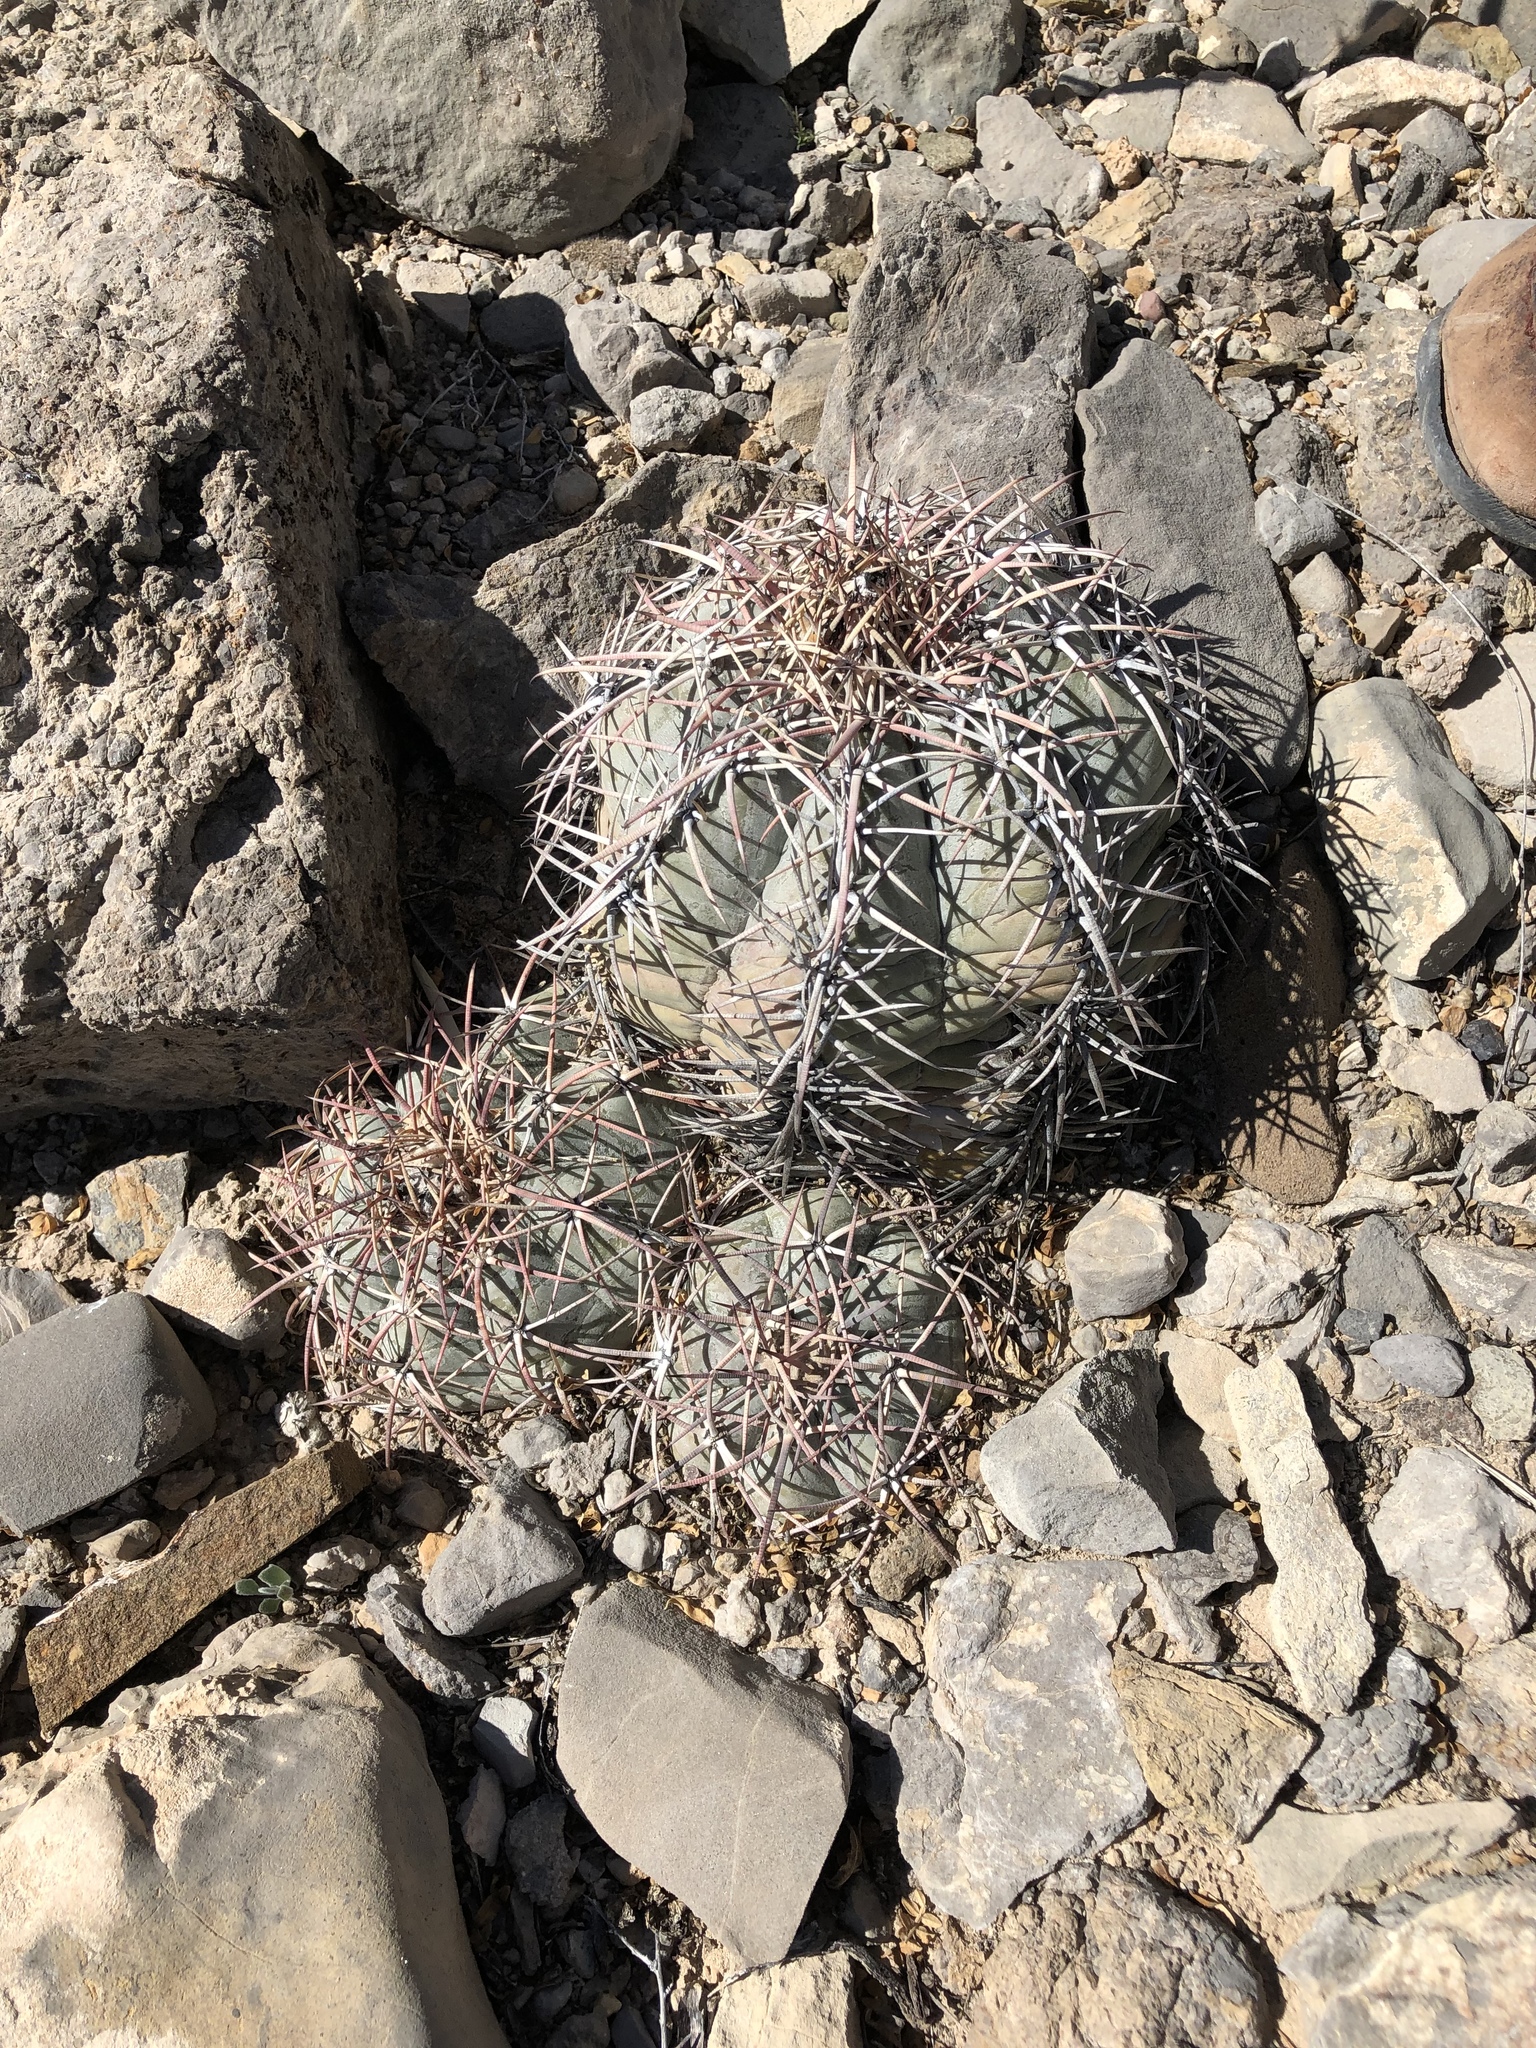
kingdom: Plantae
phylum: Tracheophyta
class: Magnoliopsida
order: Caryophyllales
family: Cactaceae
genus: Echinocactus
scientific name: Echinocactus horizonthalonius
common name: Devilshead
